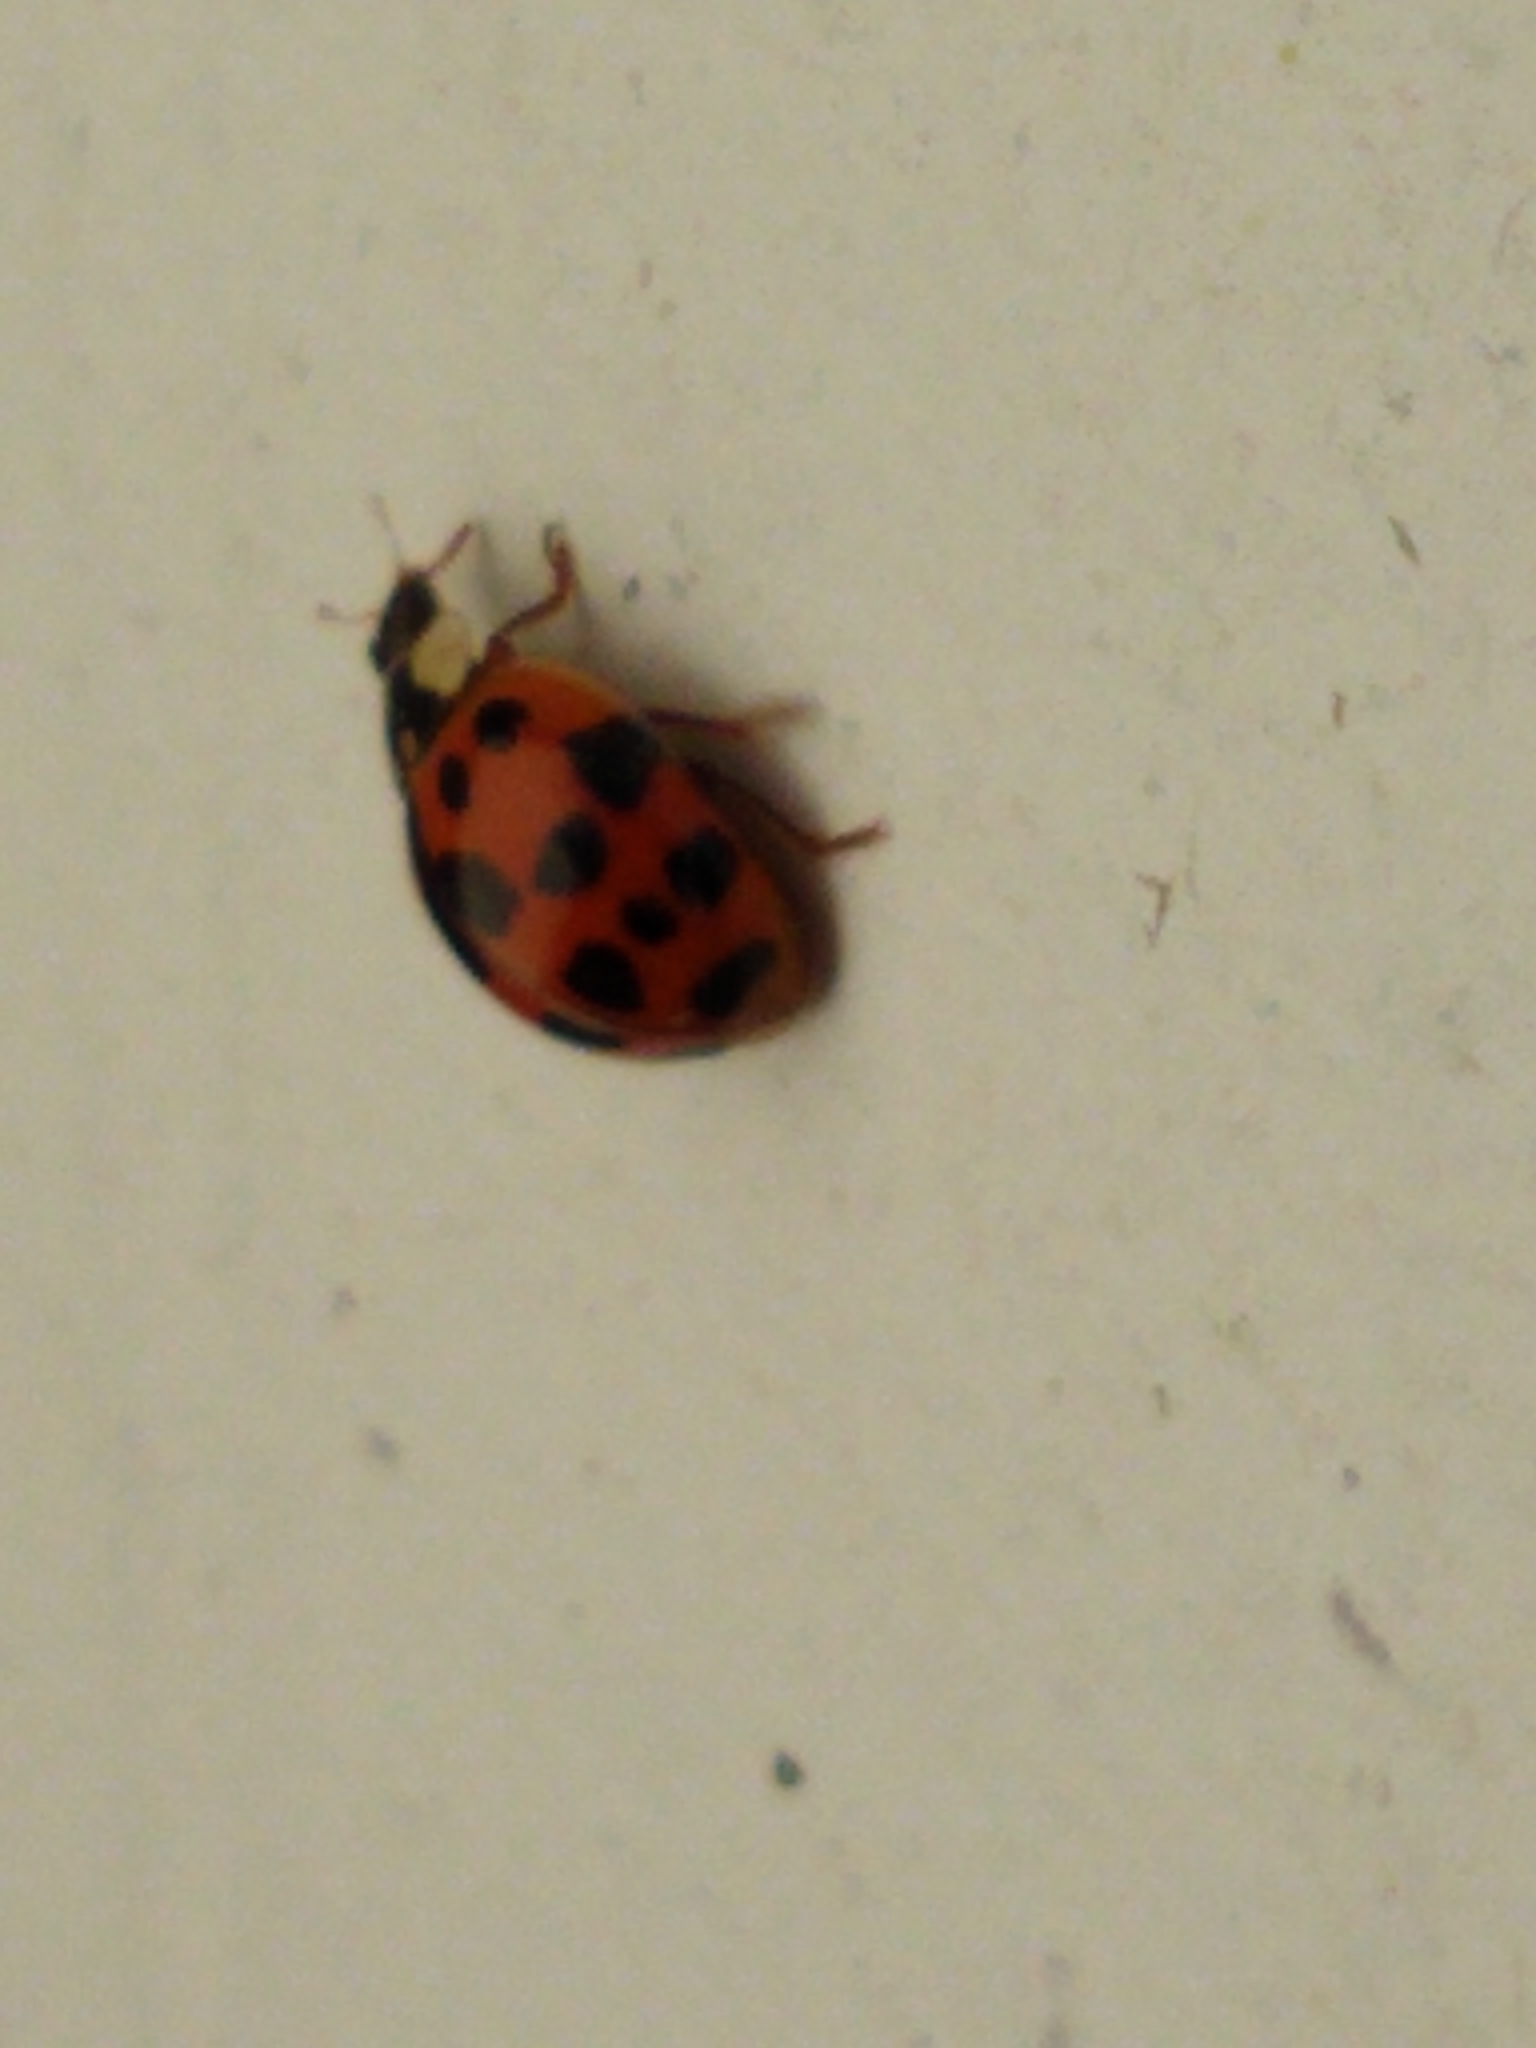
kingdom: Animalia
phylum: Arthropoda
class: Insecta
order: Coleoptera
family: Coccinellidae
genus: Harmonia
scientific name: Harmonia axyridis
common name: Harlequin ladybird
